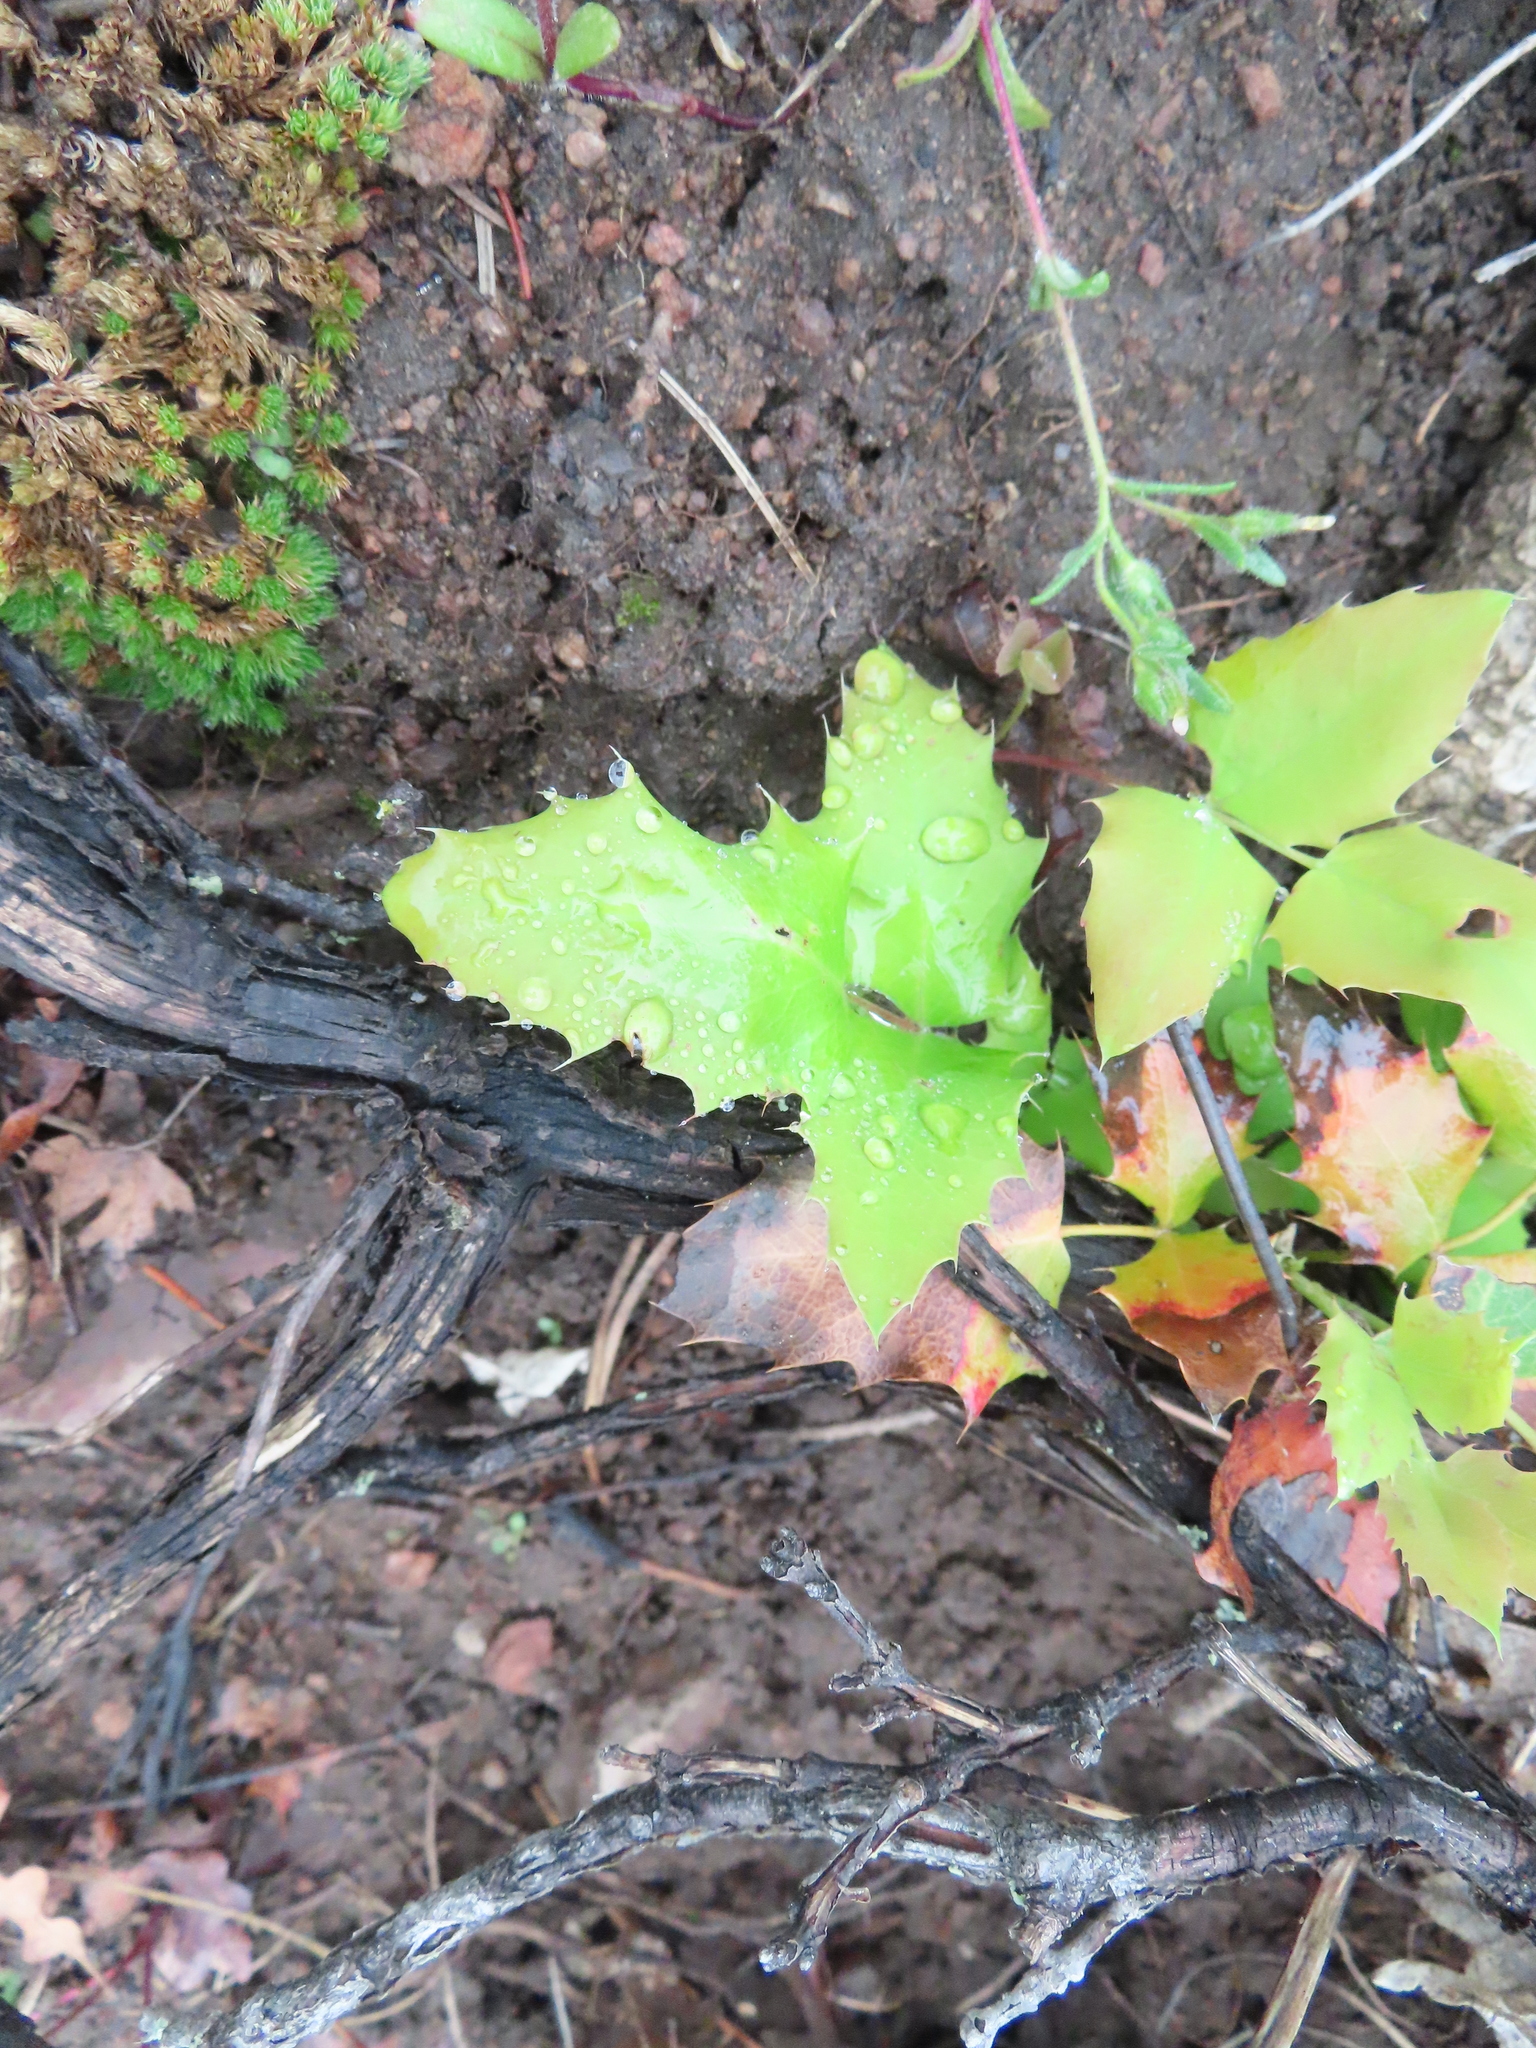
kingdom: Plantae
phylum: Tracheophyta
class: Magnoliopsida
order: Ranunculales
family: Berberidaceae
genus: Mahonia
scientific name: Mahonia repens
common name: Creeping oregon-grape
